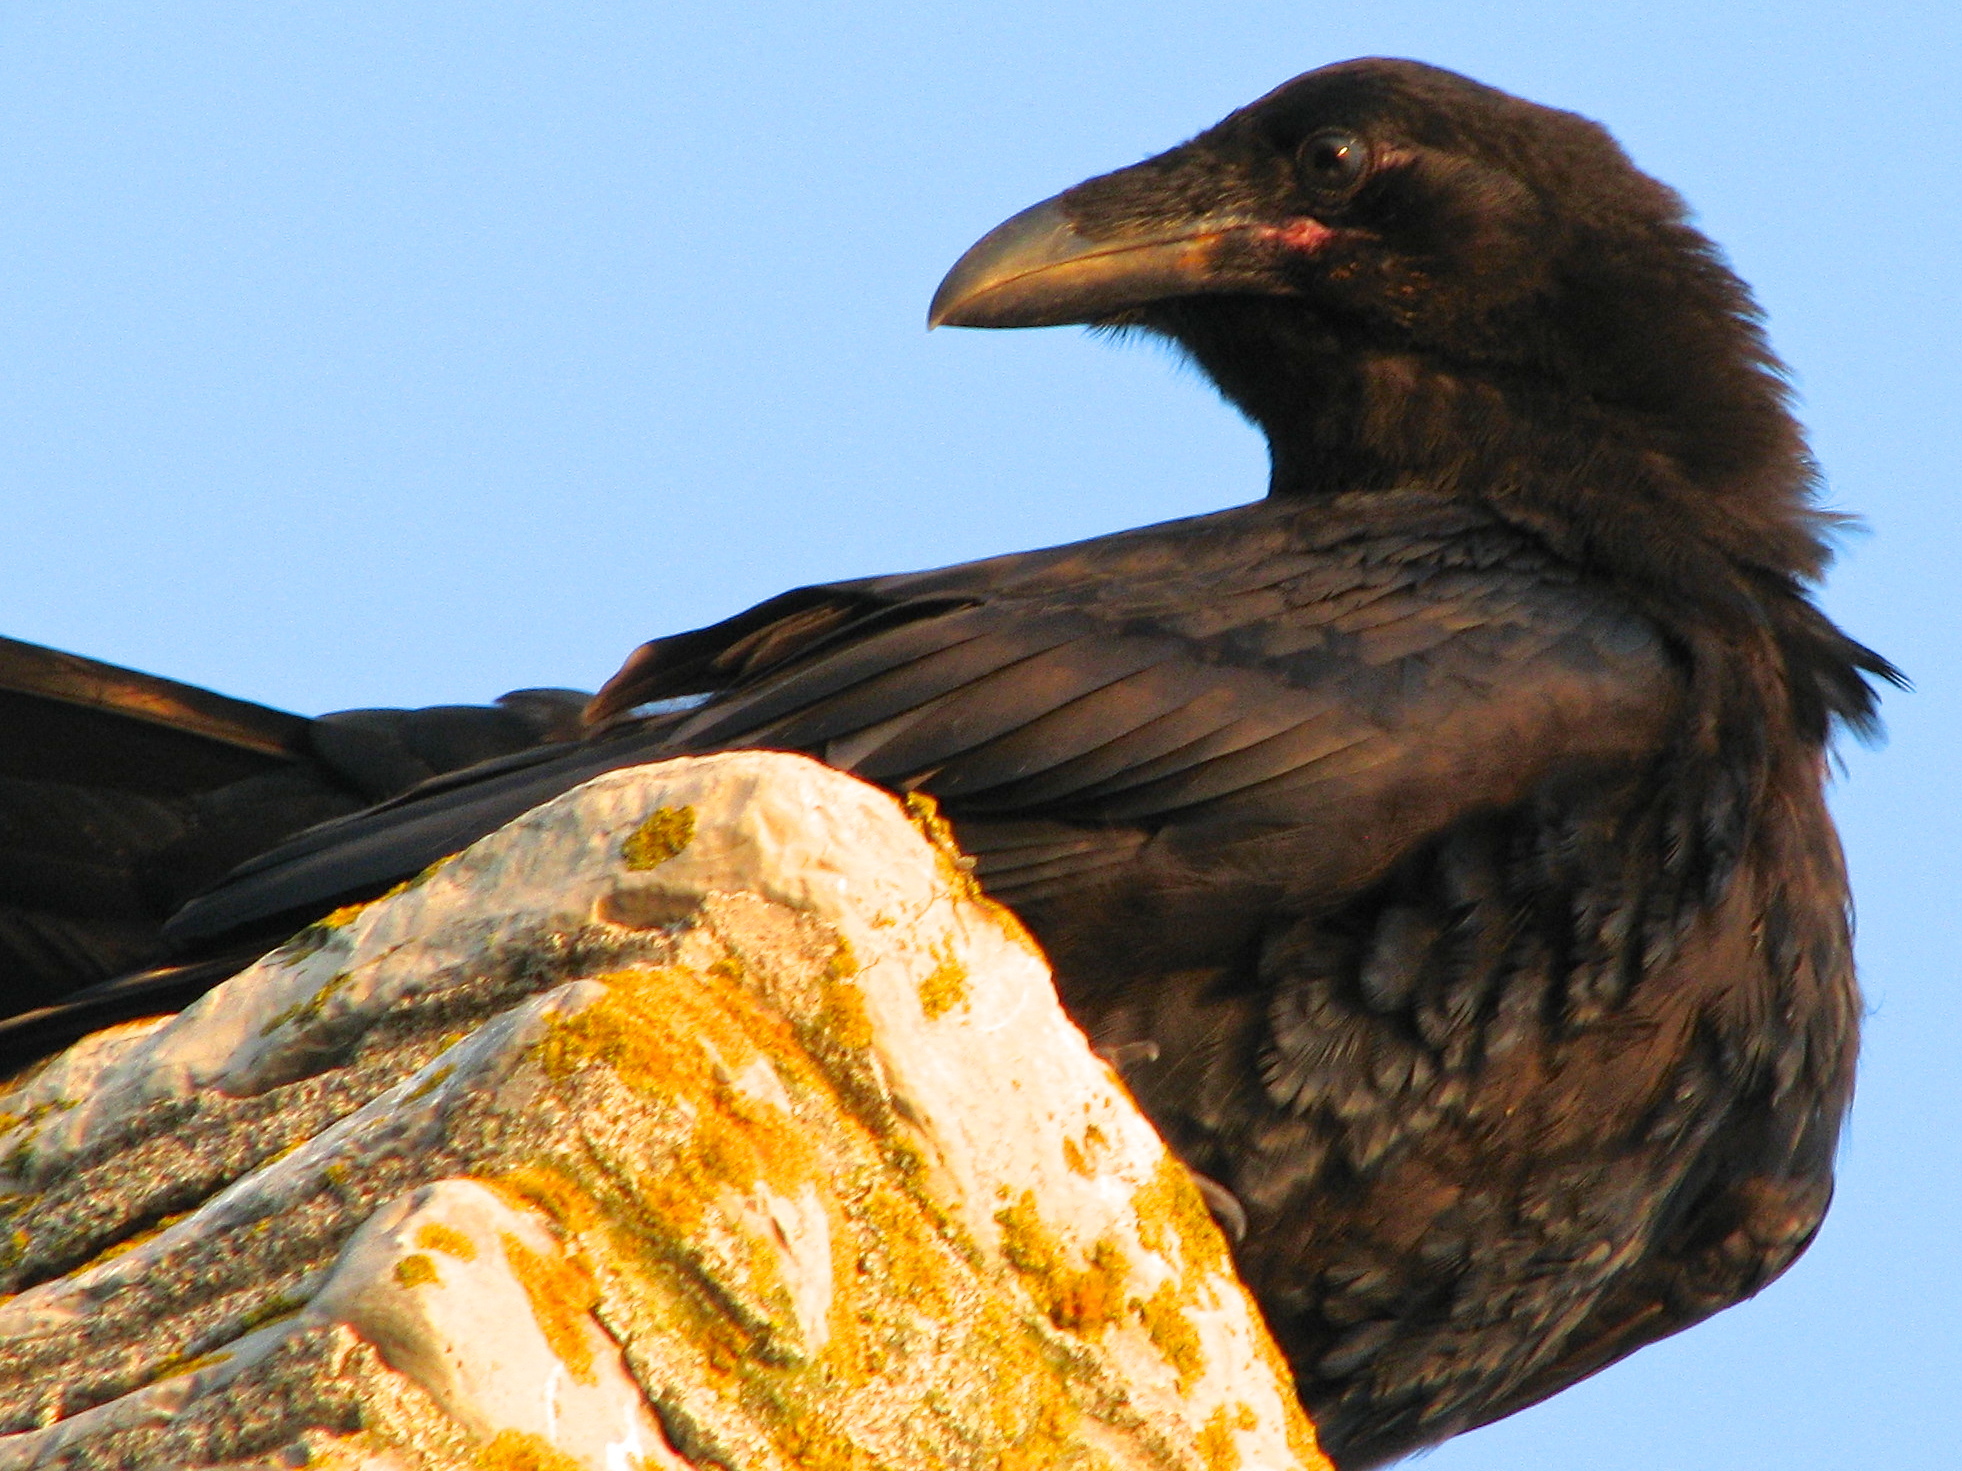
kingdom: Animalia
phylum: Chordata
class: Aves
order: Passeriformes
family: Corvidae
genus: Corvus
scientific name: Corvus corax
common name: Common raven
